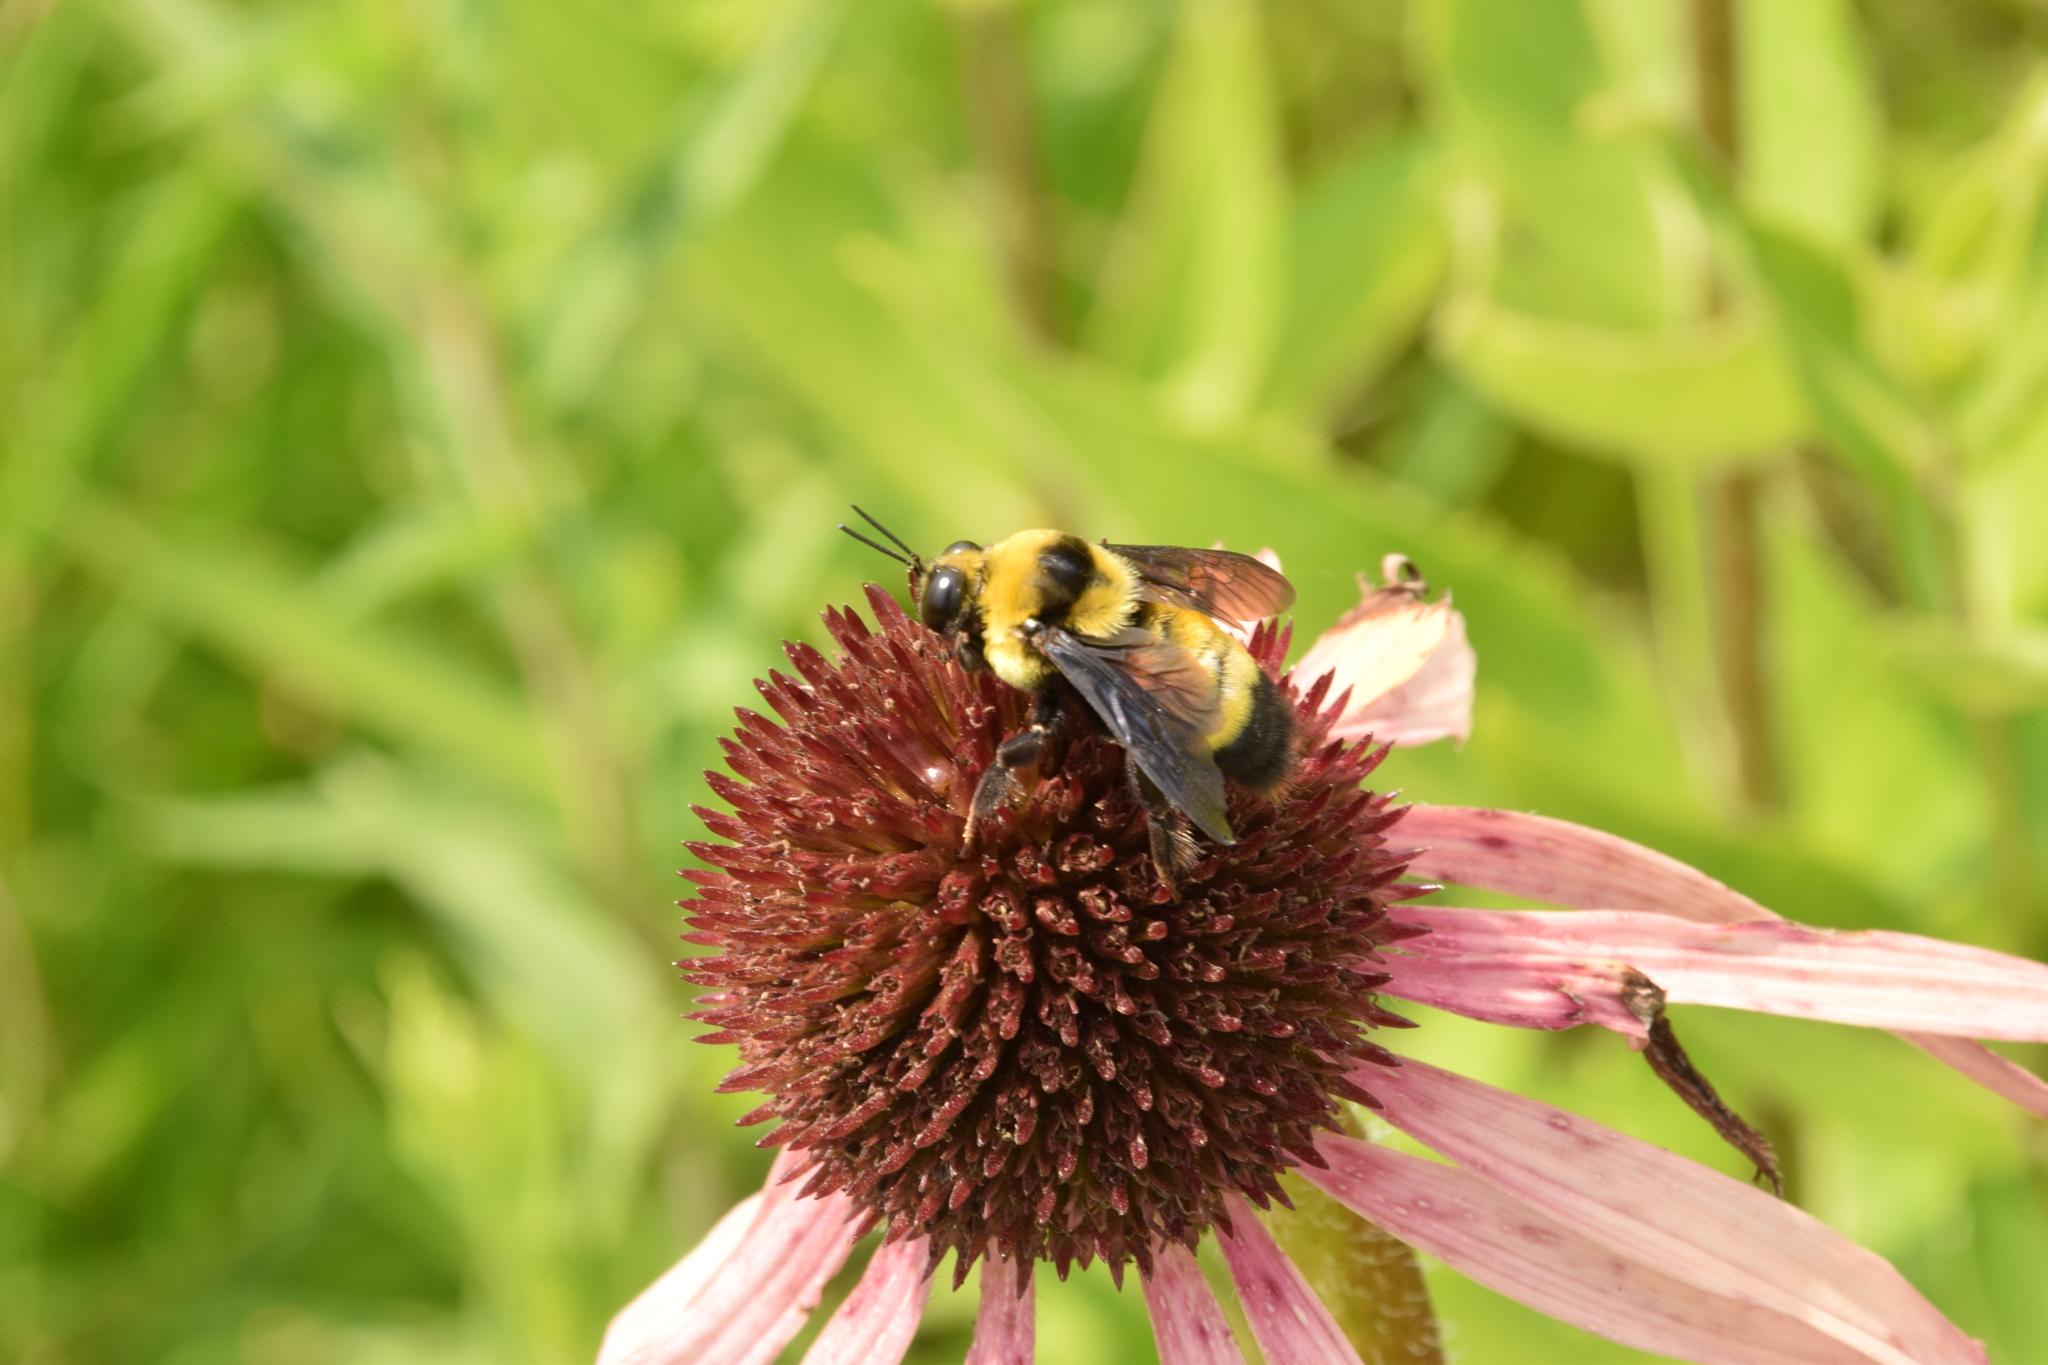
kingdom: Animalia
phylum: Arthropoda
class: Insecta
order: Hymenoptera
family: Apidae
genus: Bombus
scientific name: Bombus auricomus
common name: Black and gold bumble bee
